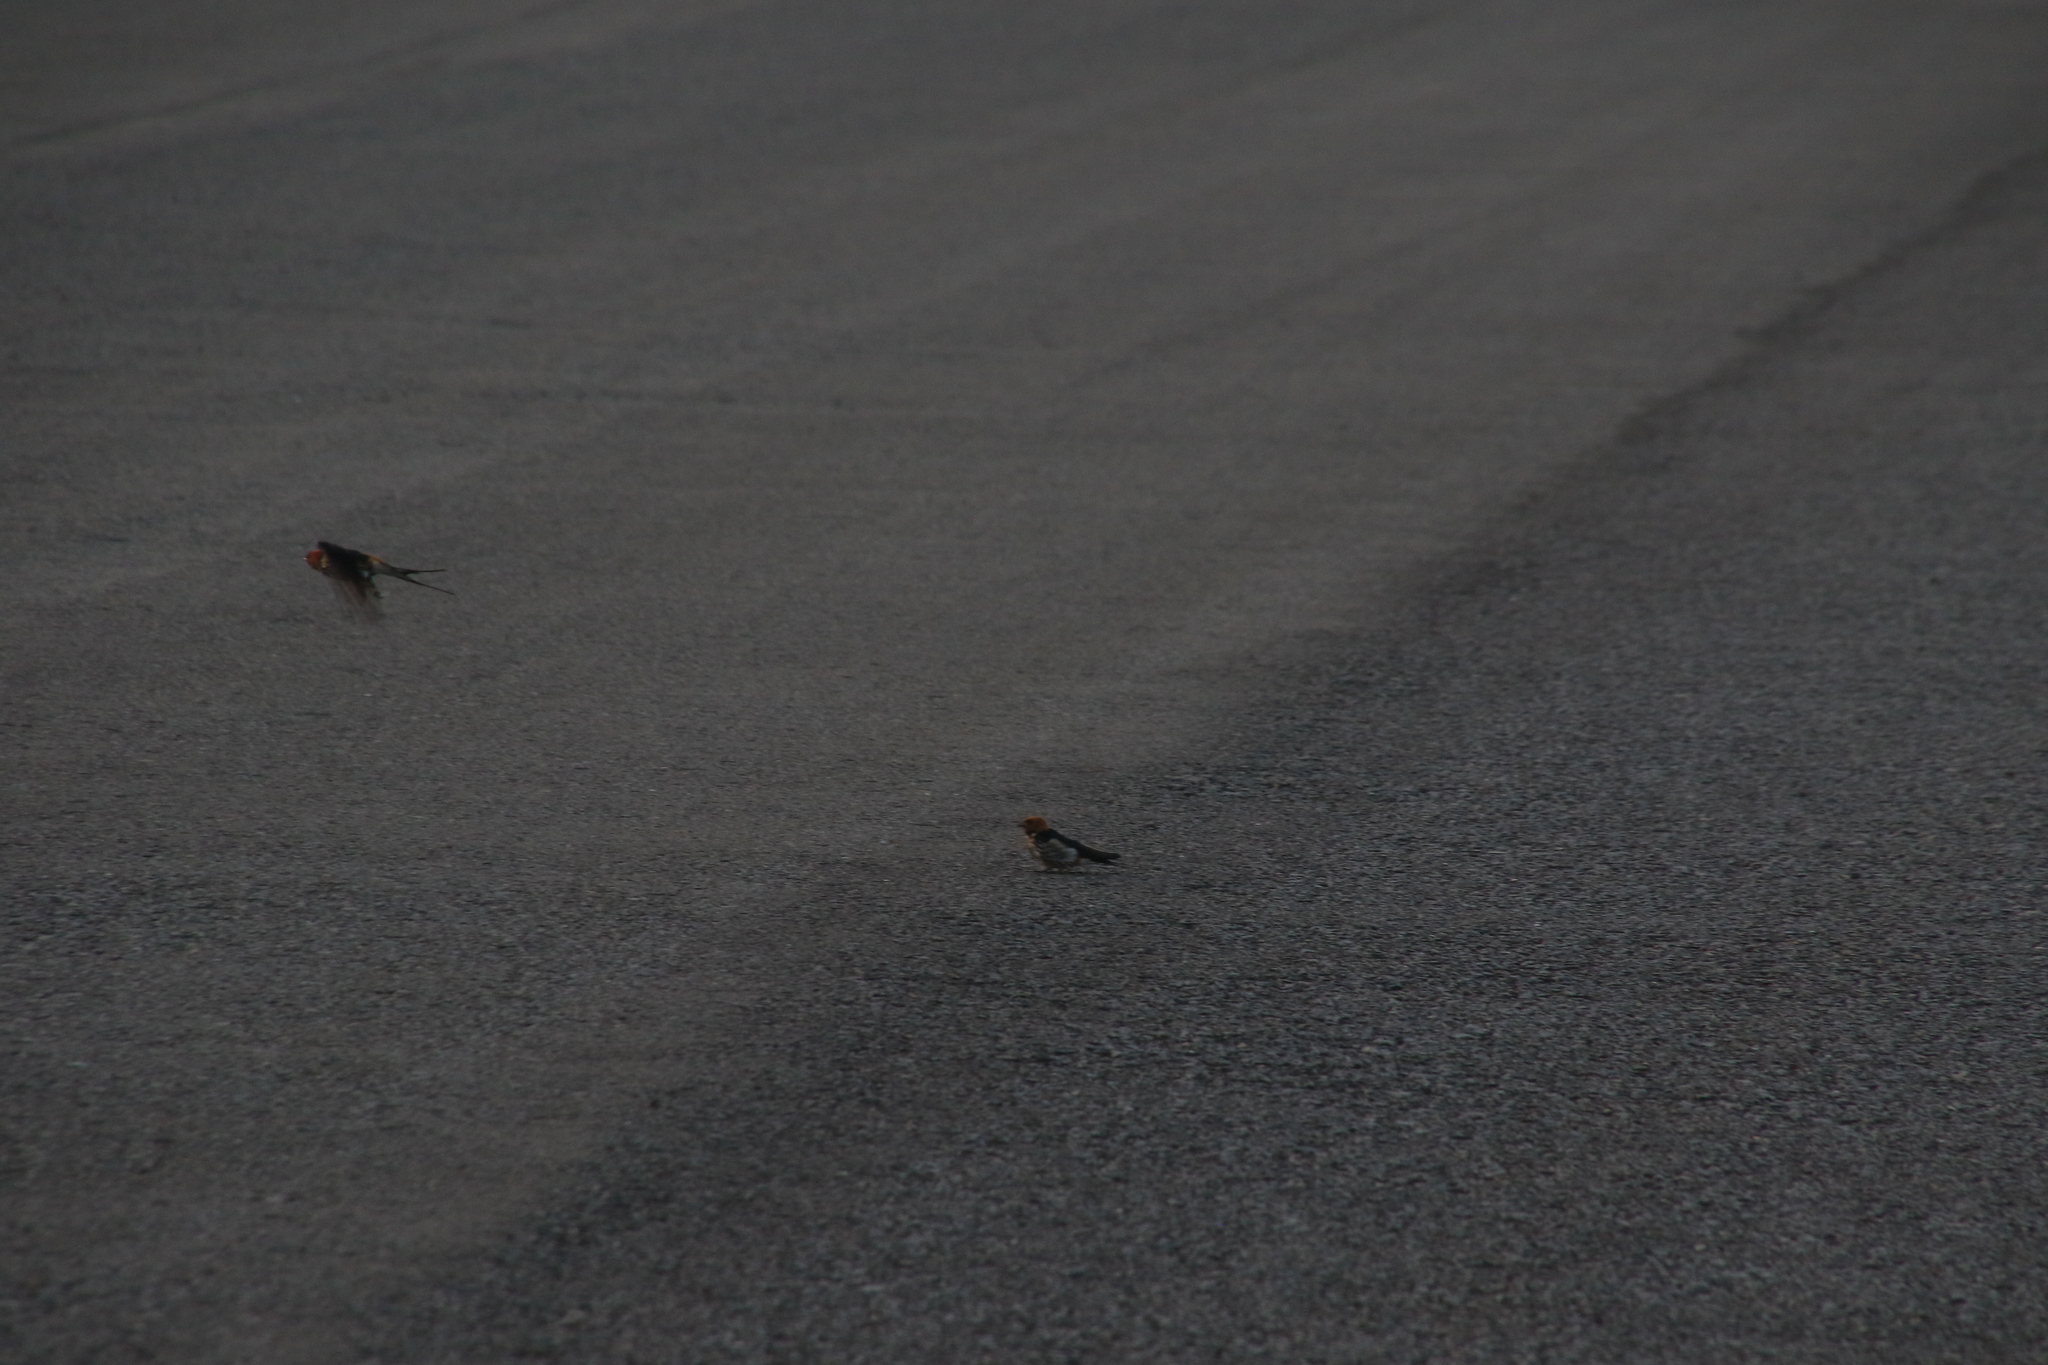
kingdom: Animalia
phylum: Chordata
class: Aves
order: Passeriformes
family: Hirundinidae
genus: Cecropis
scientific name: Cecropis abyssinica
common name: Lesser striped-swallow
